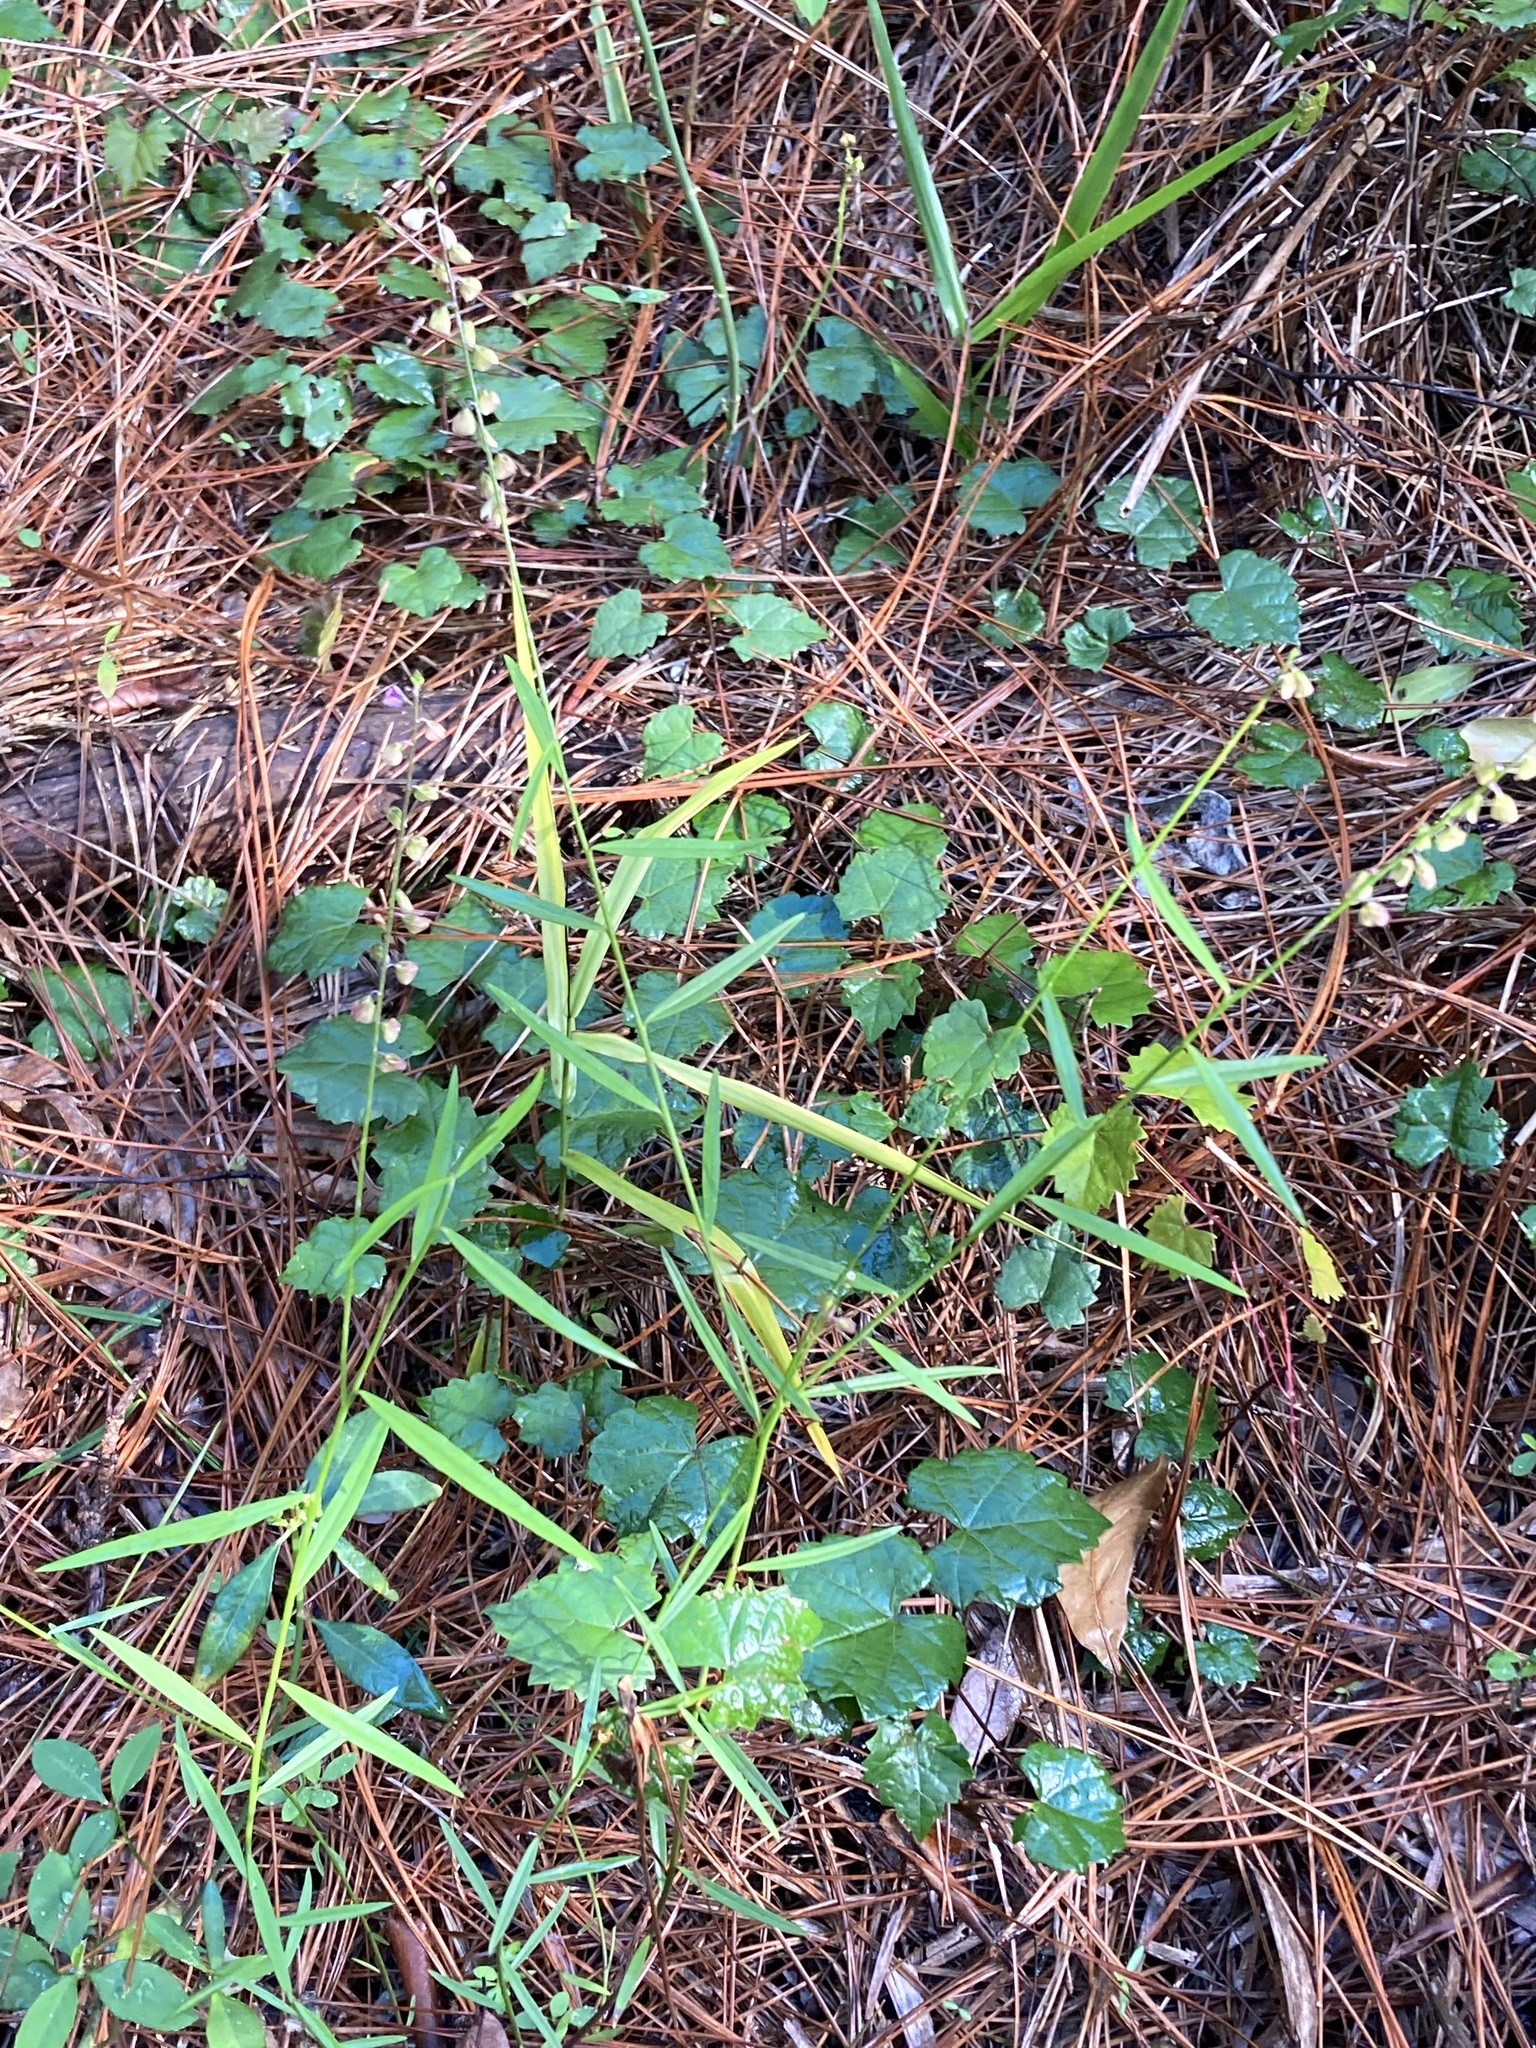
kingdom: Plantae
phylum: Tracheophyta
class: Magnoliopsida
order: Fabales
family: Polygalaceae
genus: Asemeia
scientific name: Asemeia grandiflora
